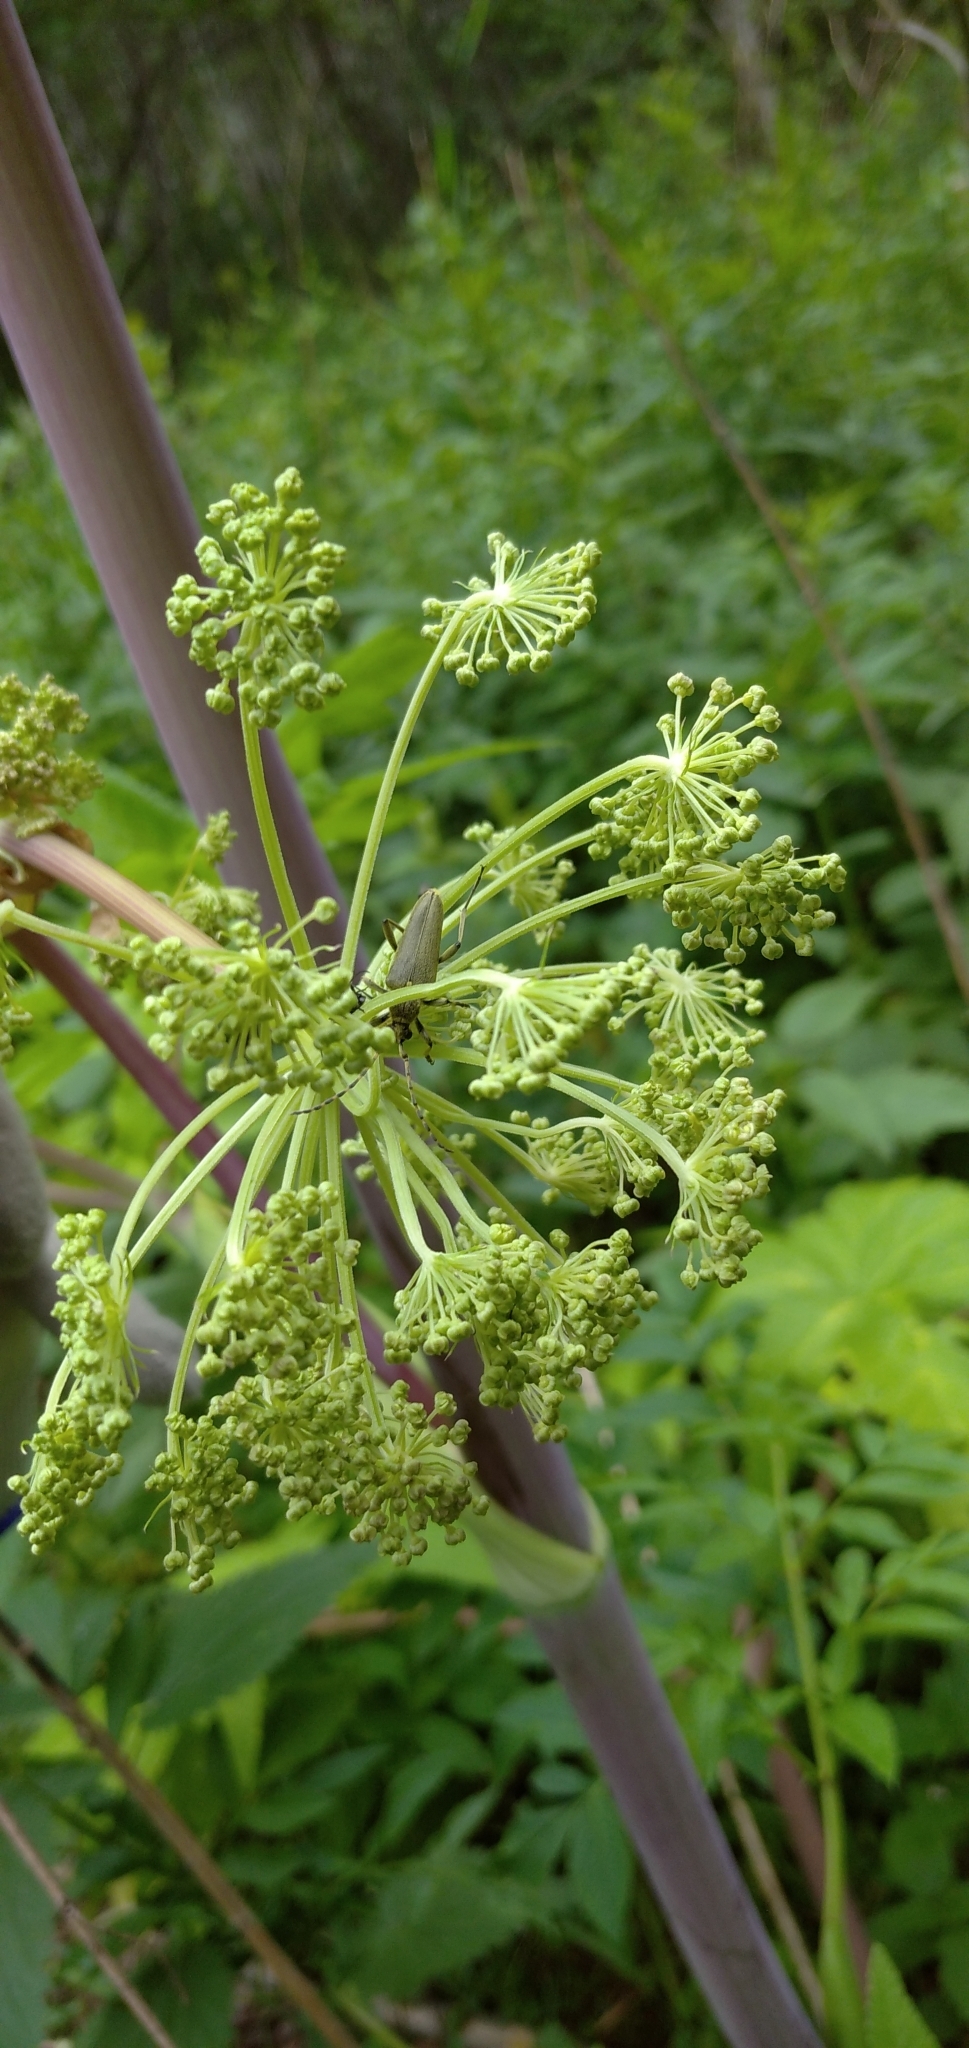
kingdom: Plantae
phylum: Tracheophyta
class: Magnoliopsida
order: Apiales
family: Apiaceae
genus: Angelica
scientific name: Angelica archangelica
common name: Garden angelica
